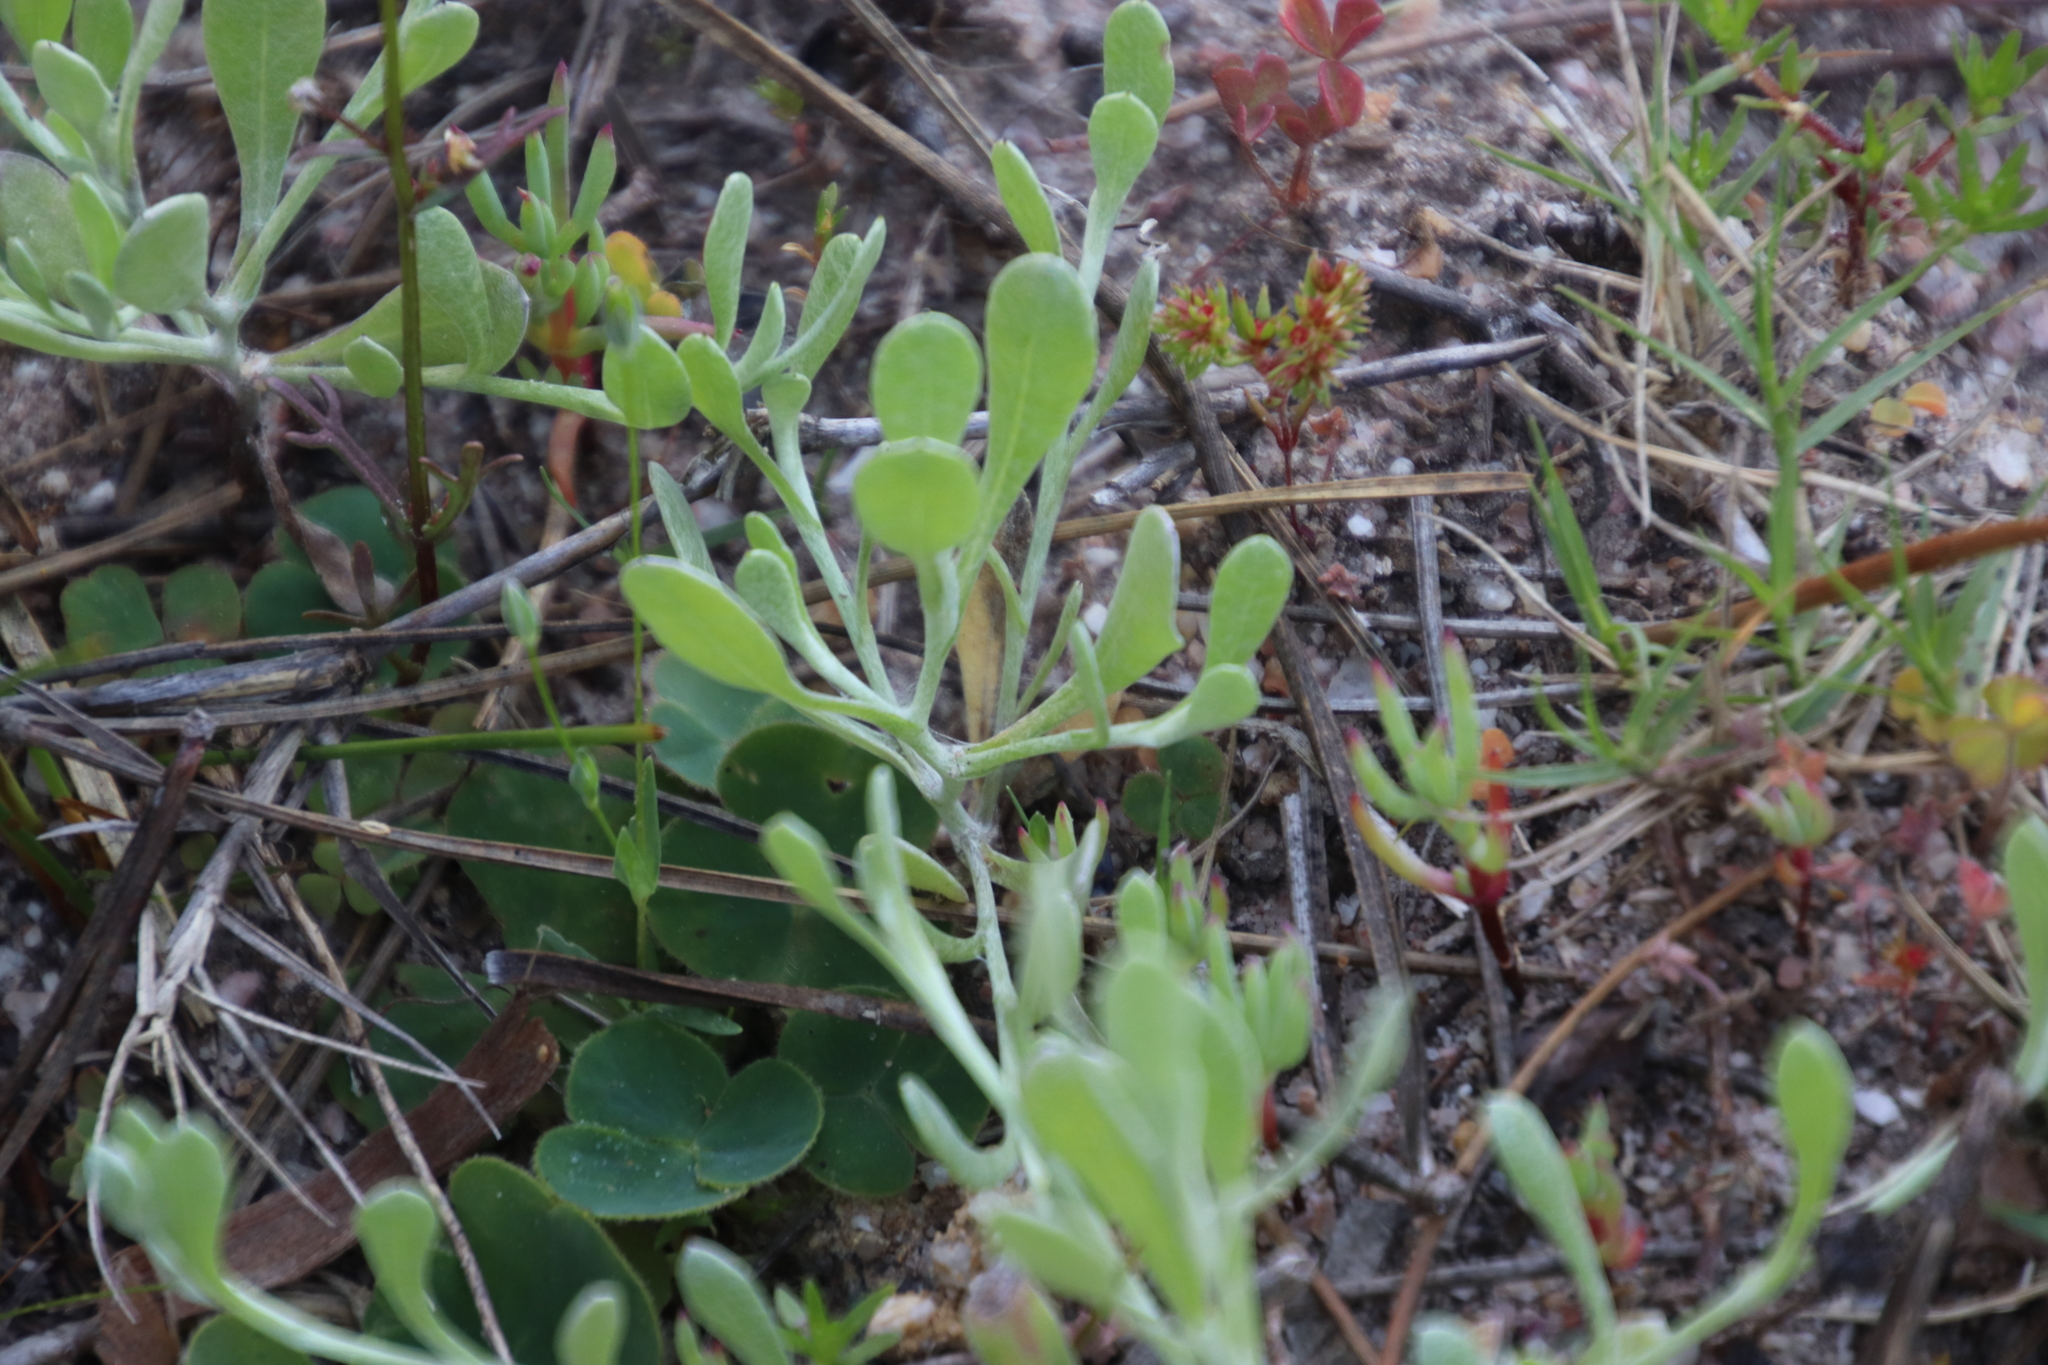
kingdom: Plantae
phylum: Tracheophyta
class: Magnoliopsida
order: Asterales
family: Asteraceae
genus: Helichrysum
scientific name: Helichrysum indicum
